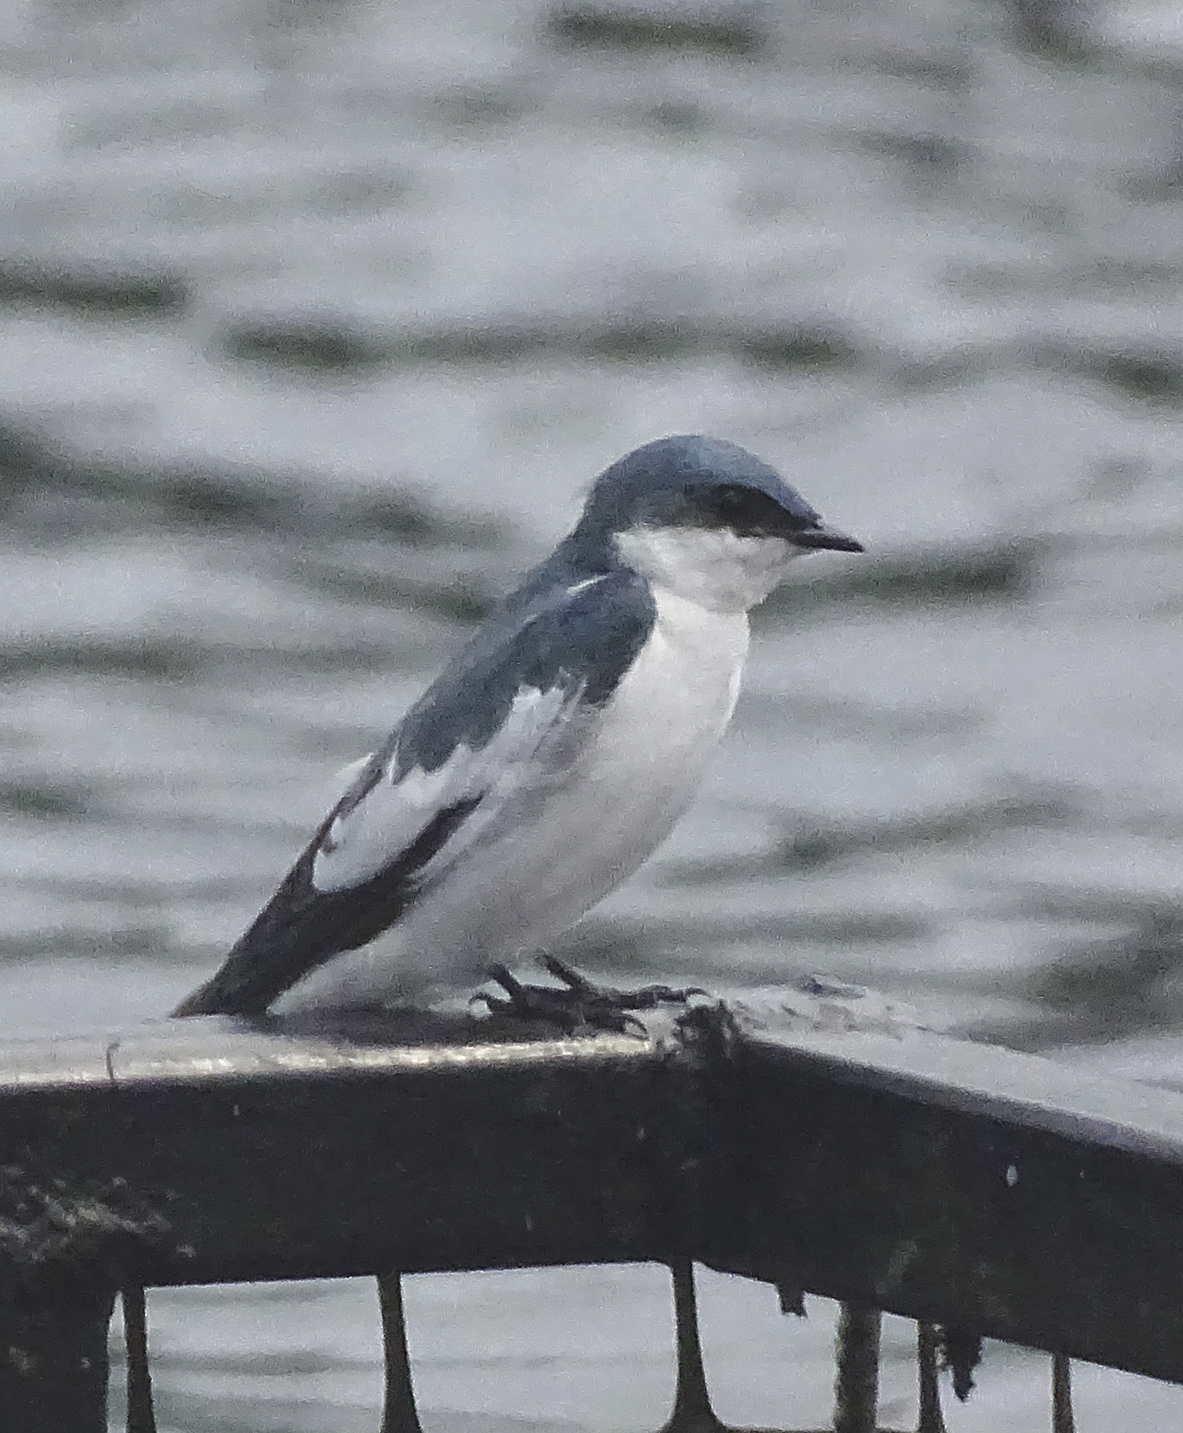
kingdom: Animalia
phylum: Chordata
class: Aves
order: Passeriformes
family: Hirundinidae
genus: Tachycineta
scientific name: Tachycineta albiventer
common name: White-winged swallow
